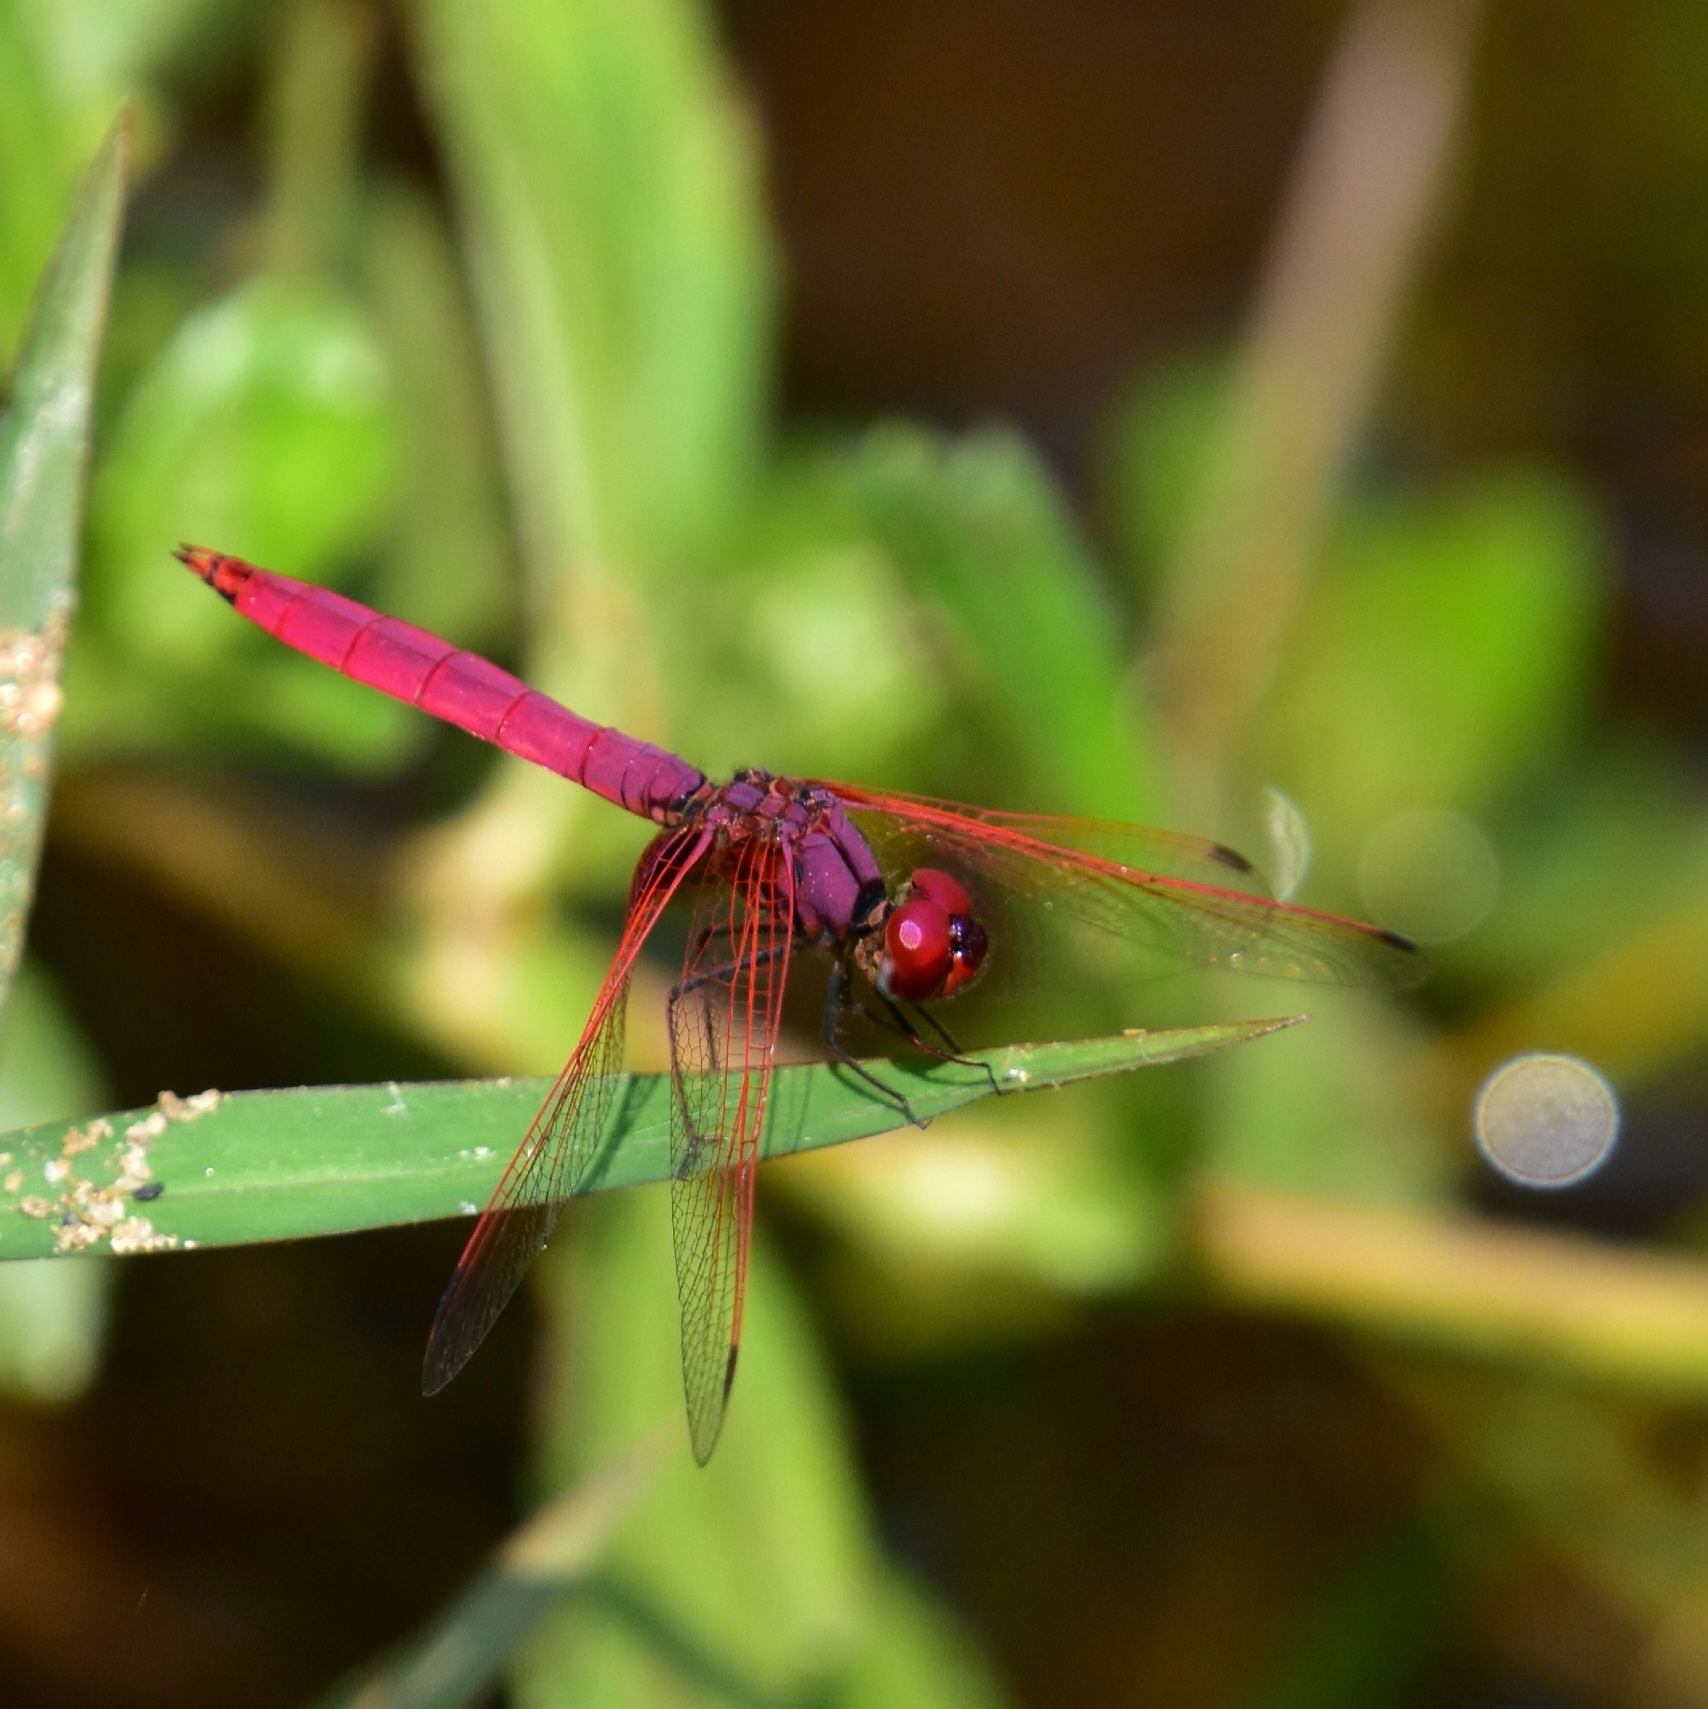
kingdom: Animalia
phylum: Arthropoda
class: Insecta
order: Odonata
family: Libellulidae
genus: Trithemis
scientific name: Trithemis aurora
